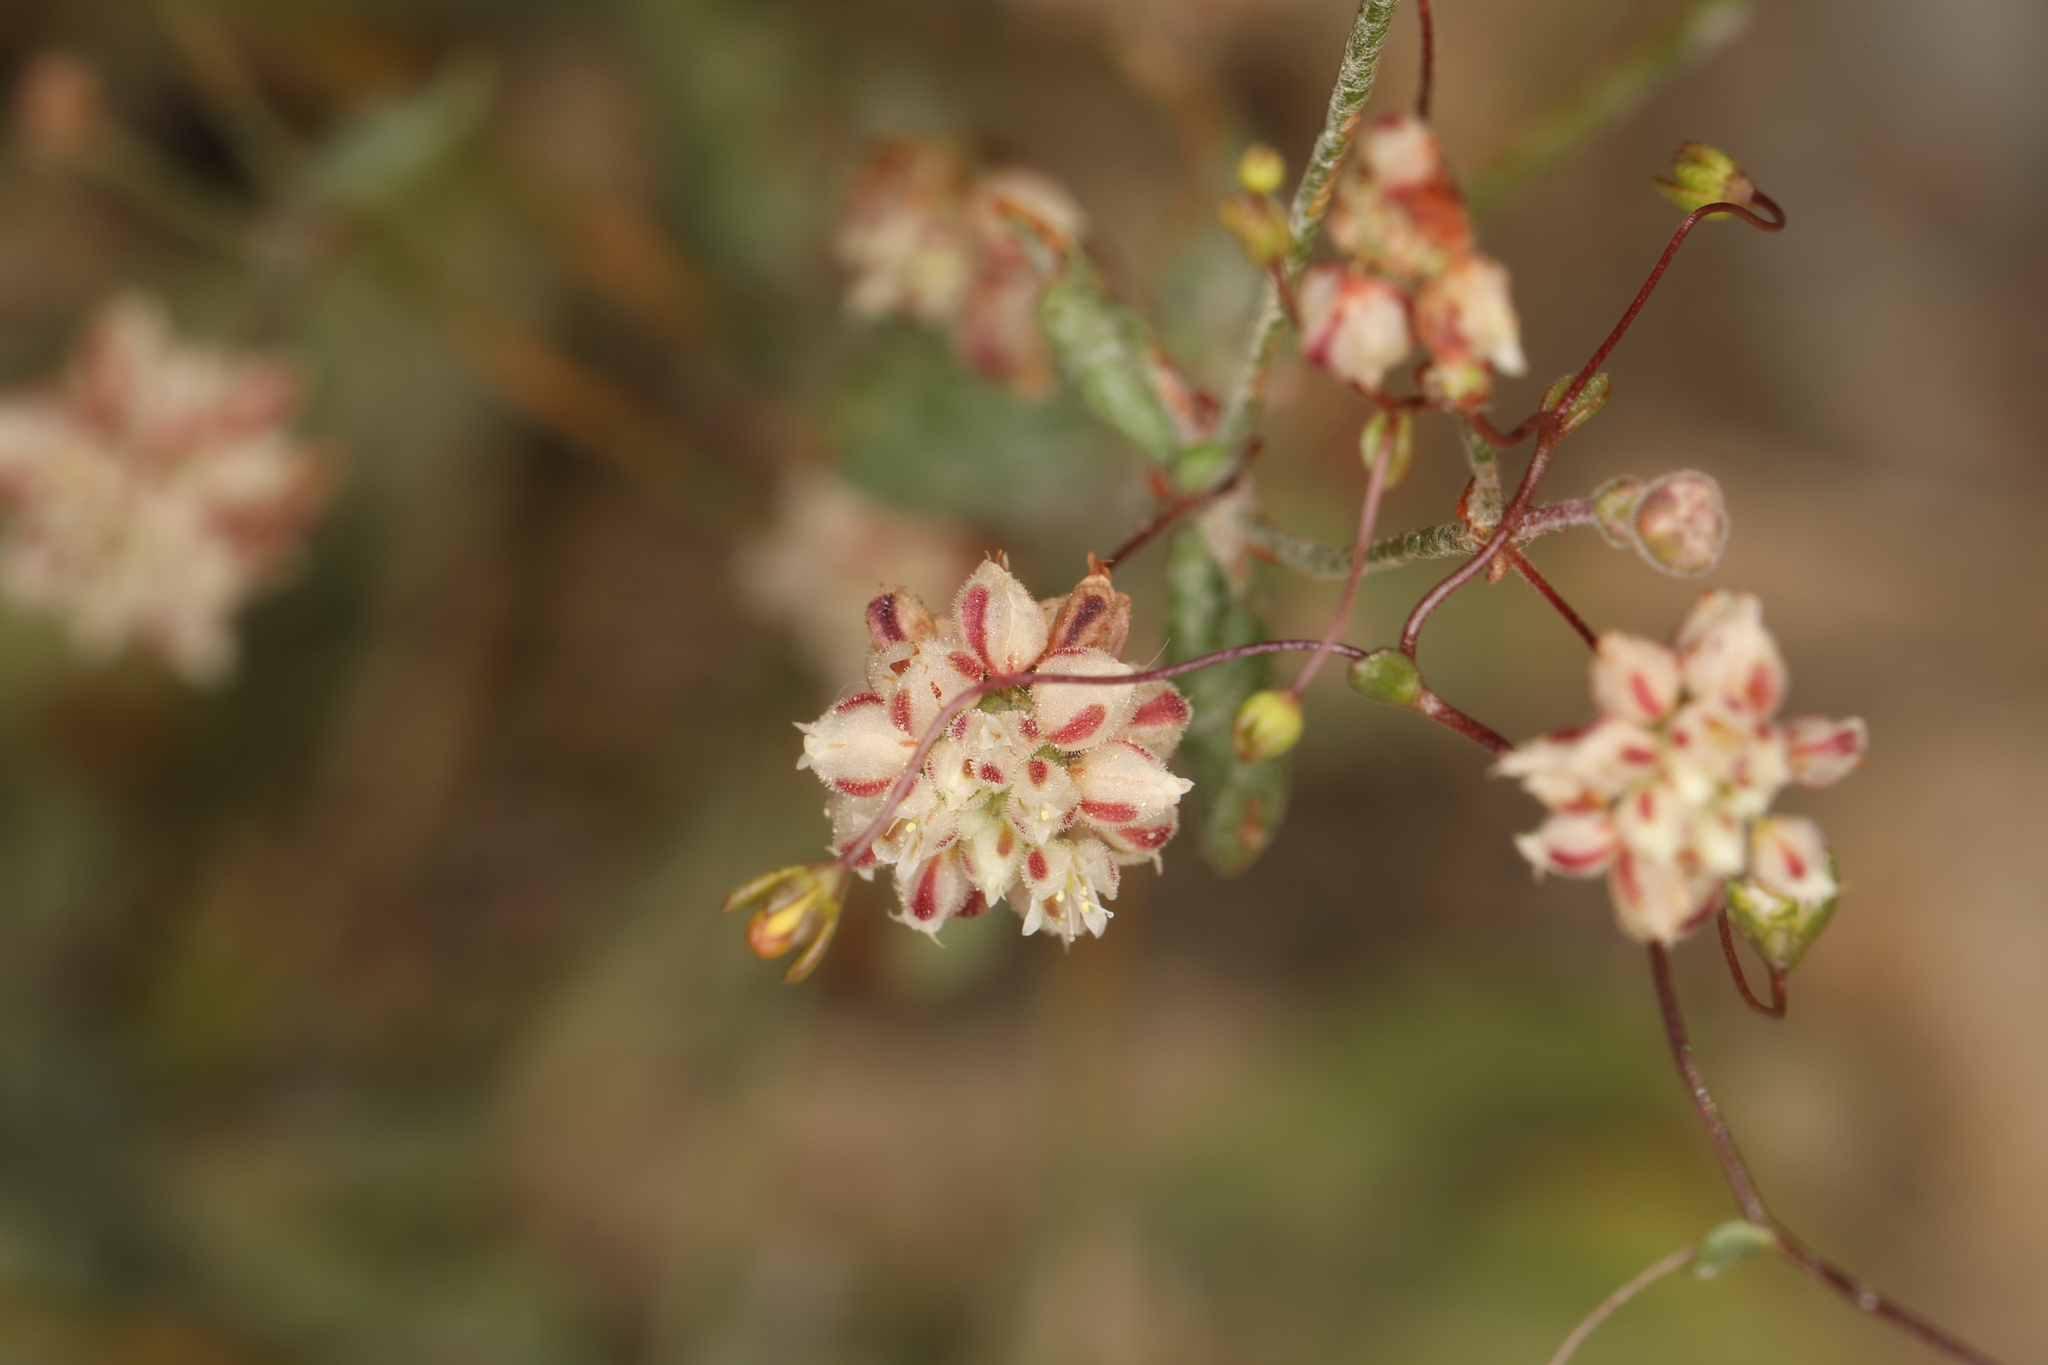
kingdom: Plantae
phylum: Tracheophyta
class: Magnoliopsida
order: Caryophyllales
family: Polygonaceae
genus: Eriogonum
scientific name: Eriogonum maculatum
